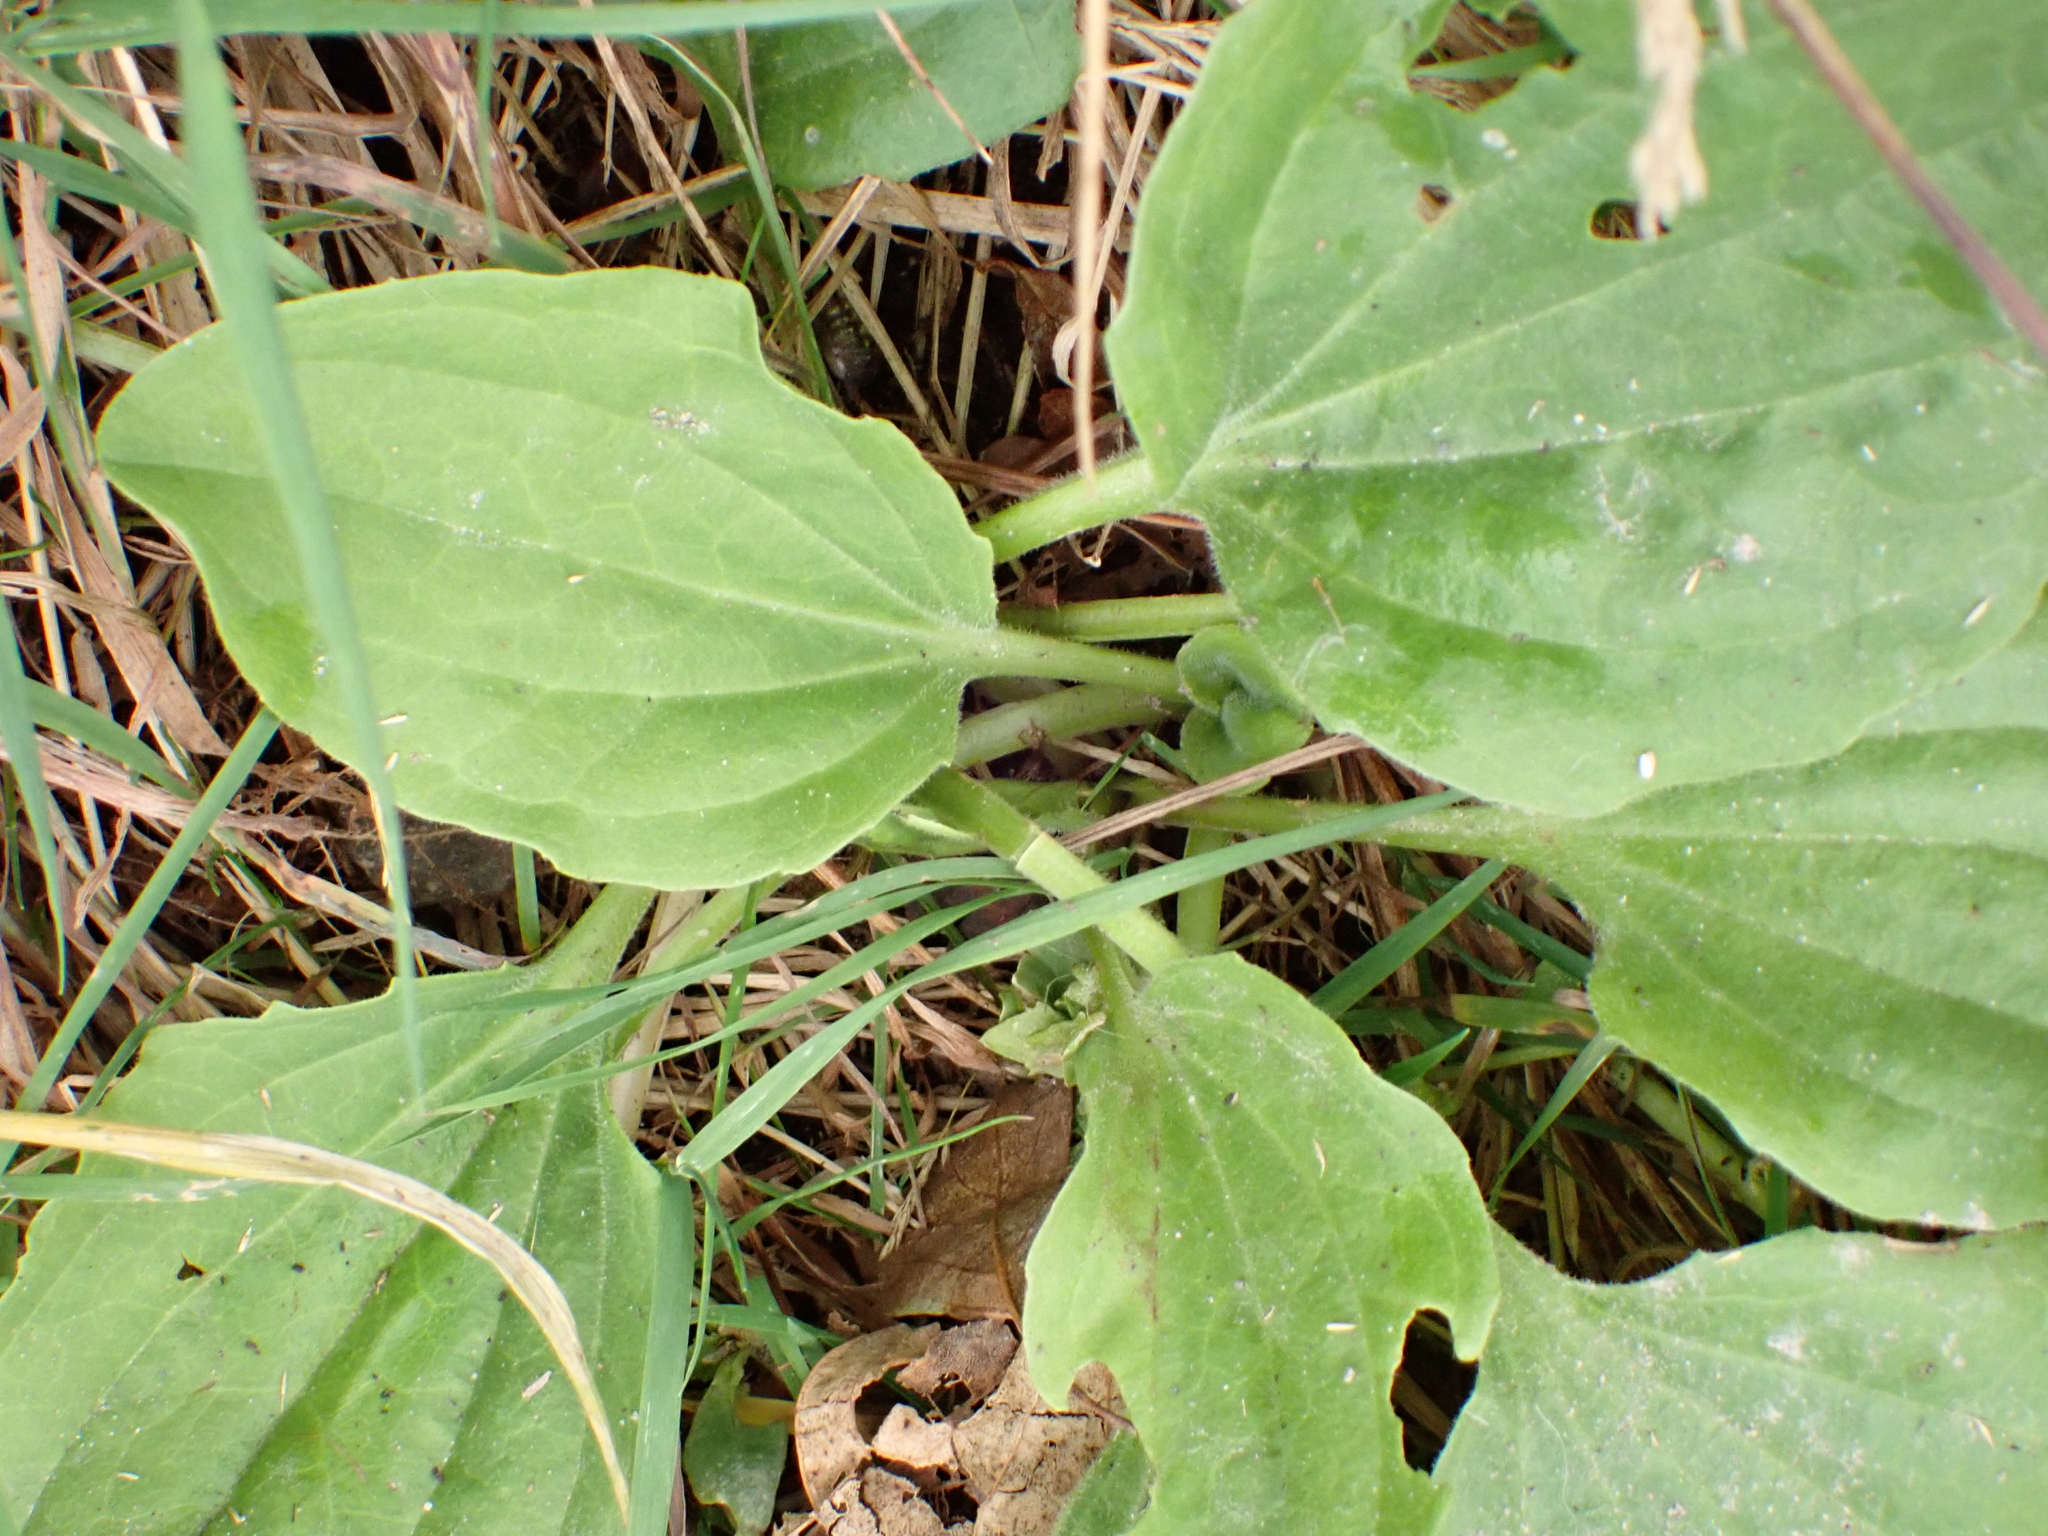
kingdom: Plantae
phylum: Tracheophyta
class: Magnoliopsida
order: Lamiales
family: Plantaginaceae
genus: Plantago
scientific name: Plantago major
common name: Common plantain
